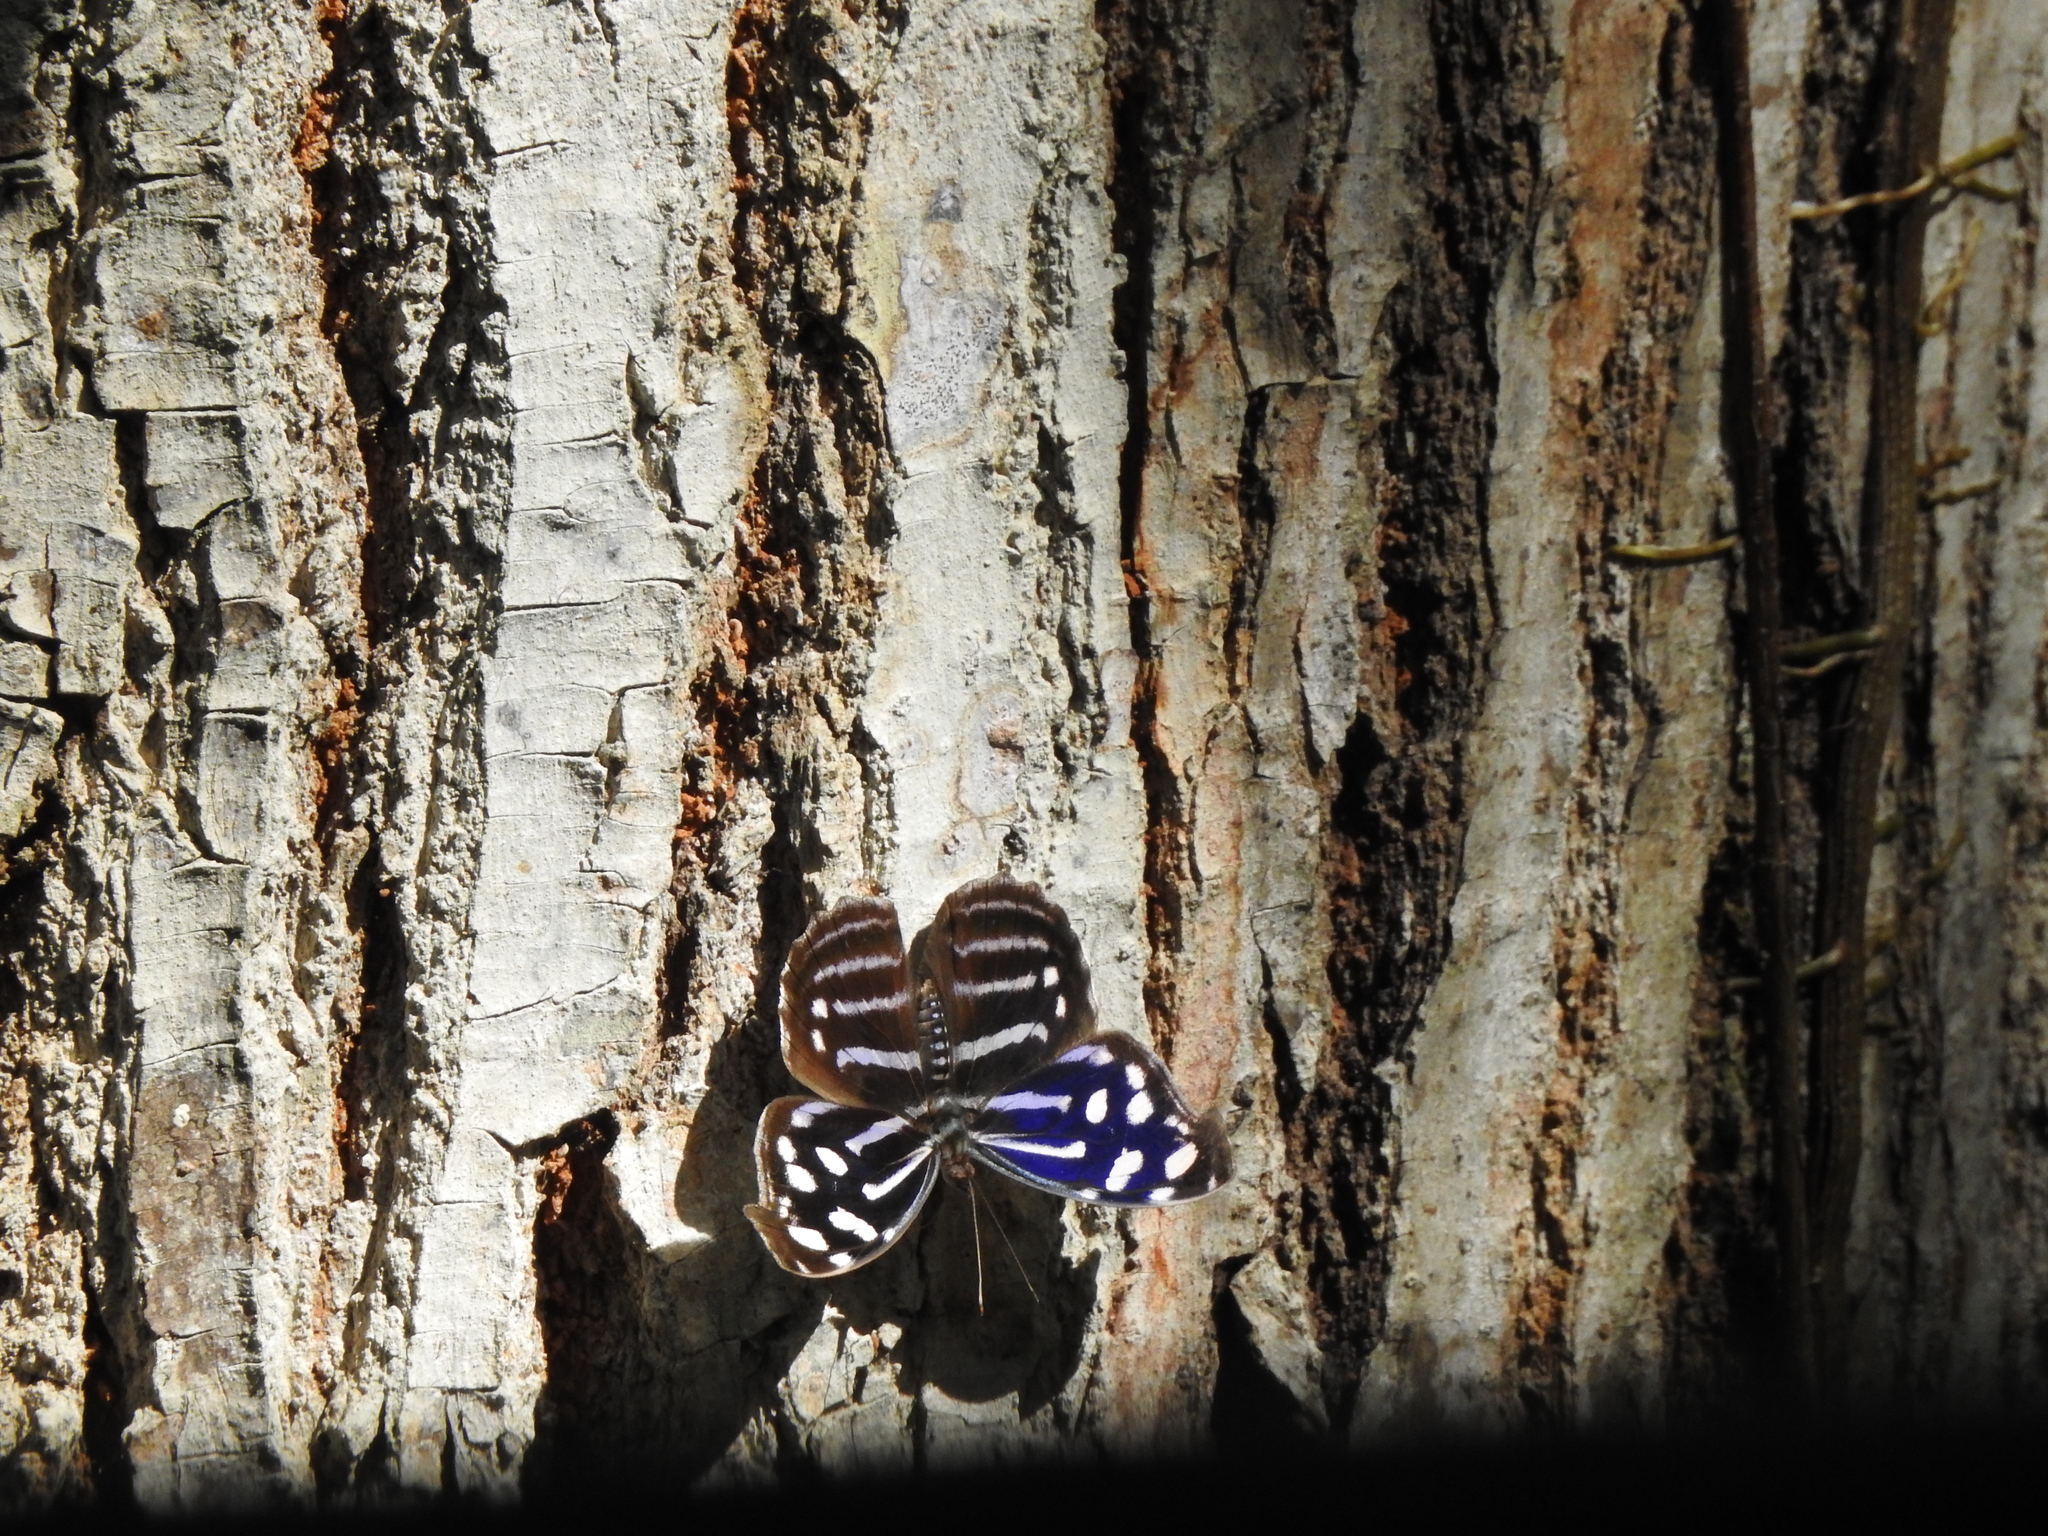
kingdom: Animalia
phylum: Arthropoda
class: Insecta
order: Lepidoptera
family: Nymphalidae
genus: Myscelia
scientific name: Myscelia cyaniris
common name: Whitened bluewing
